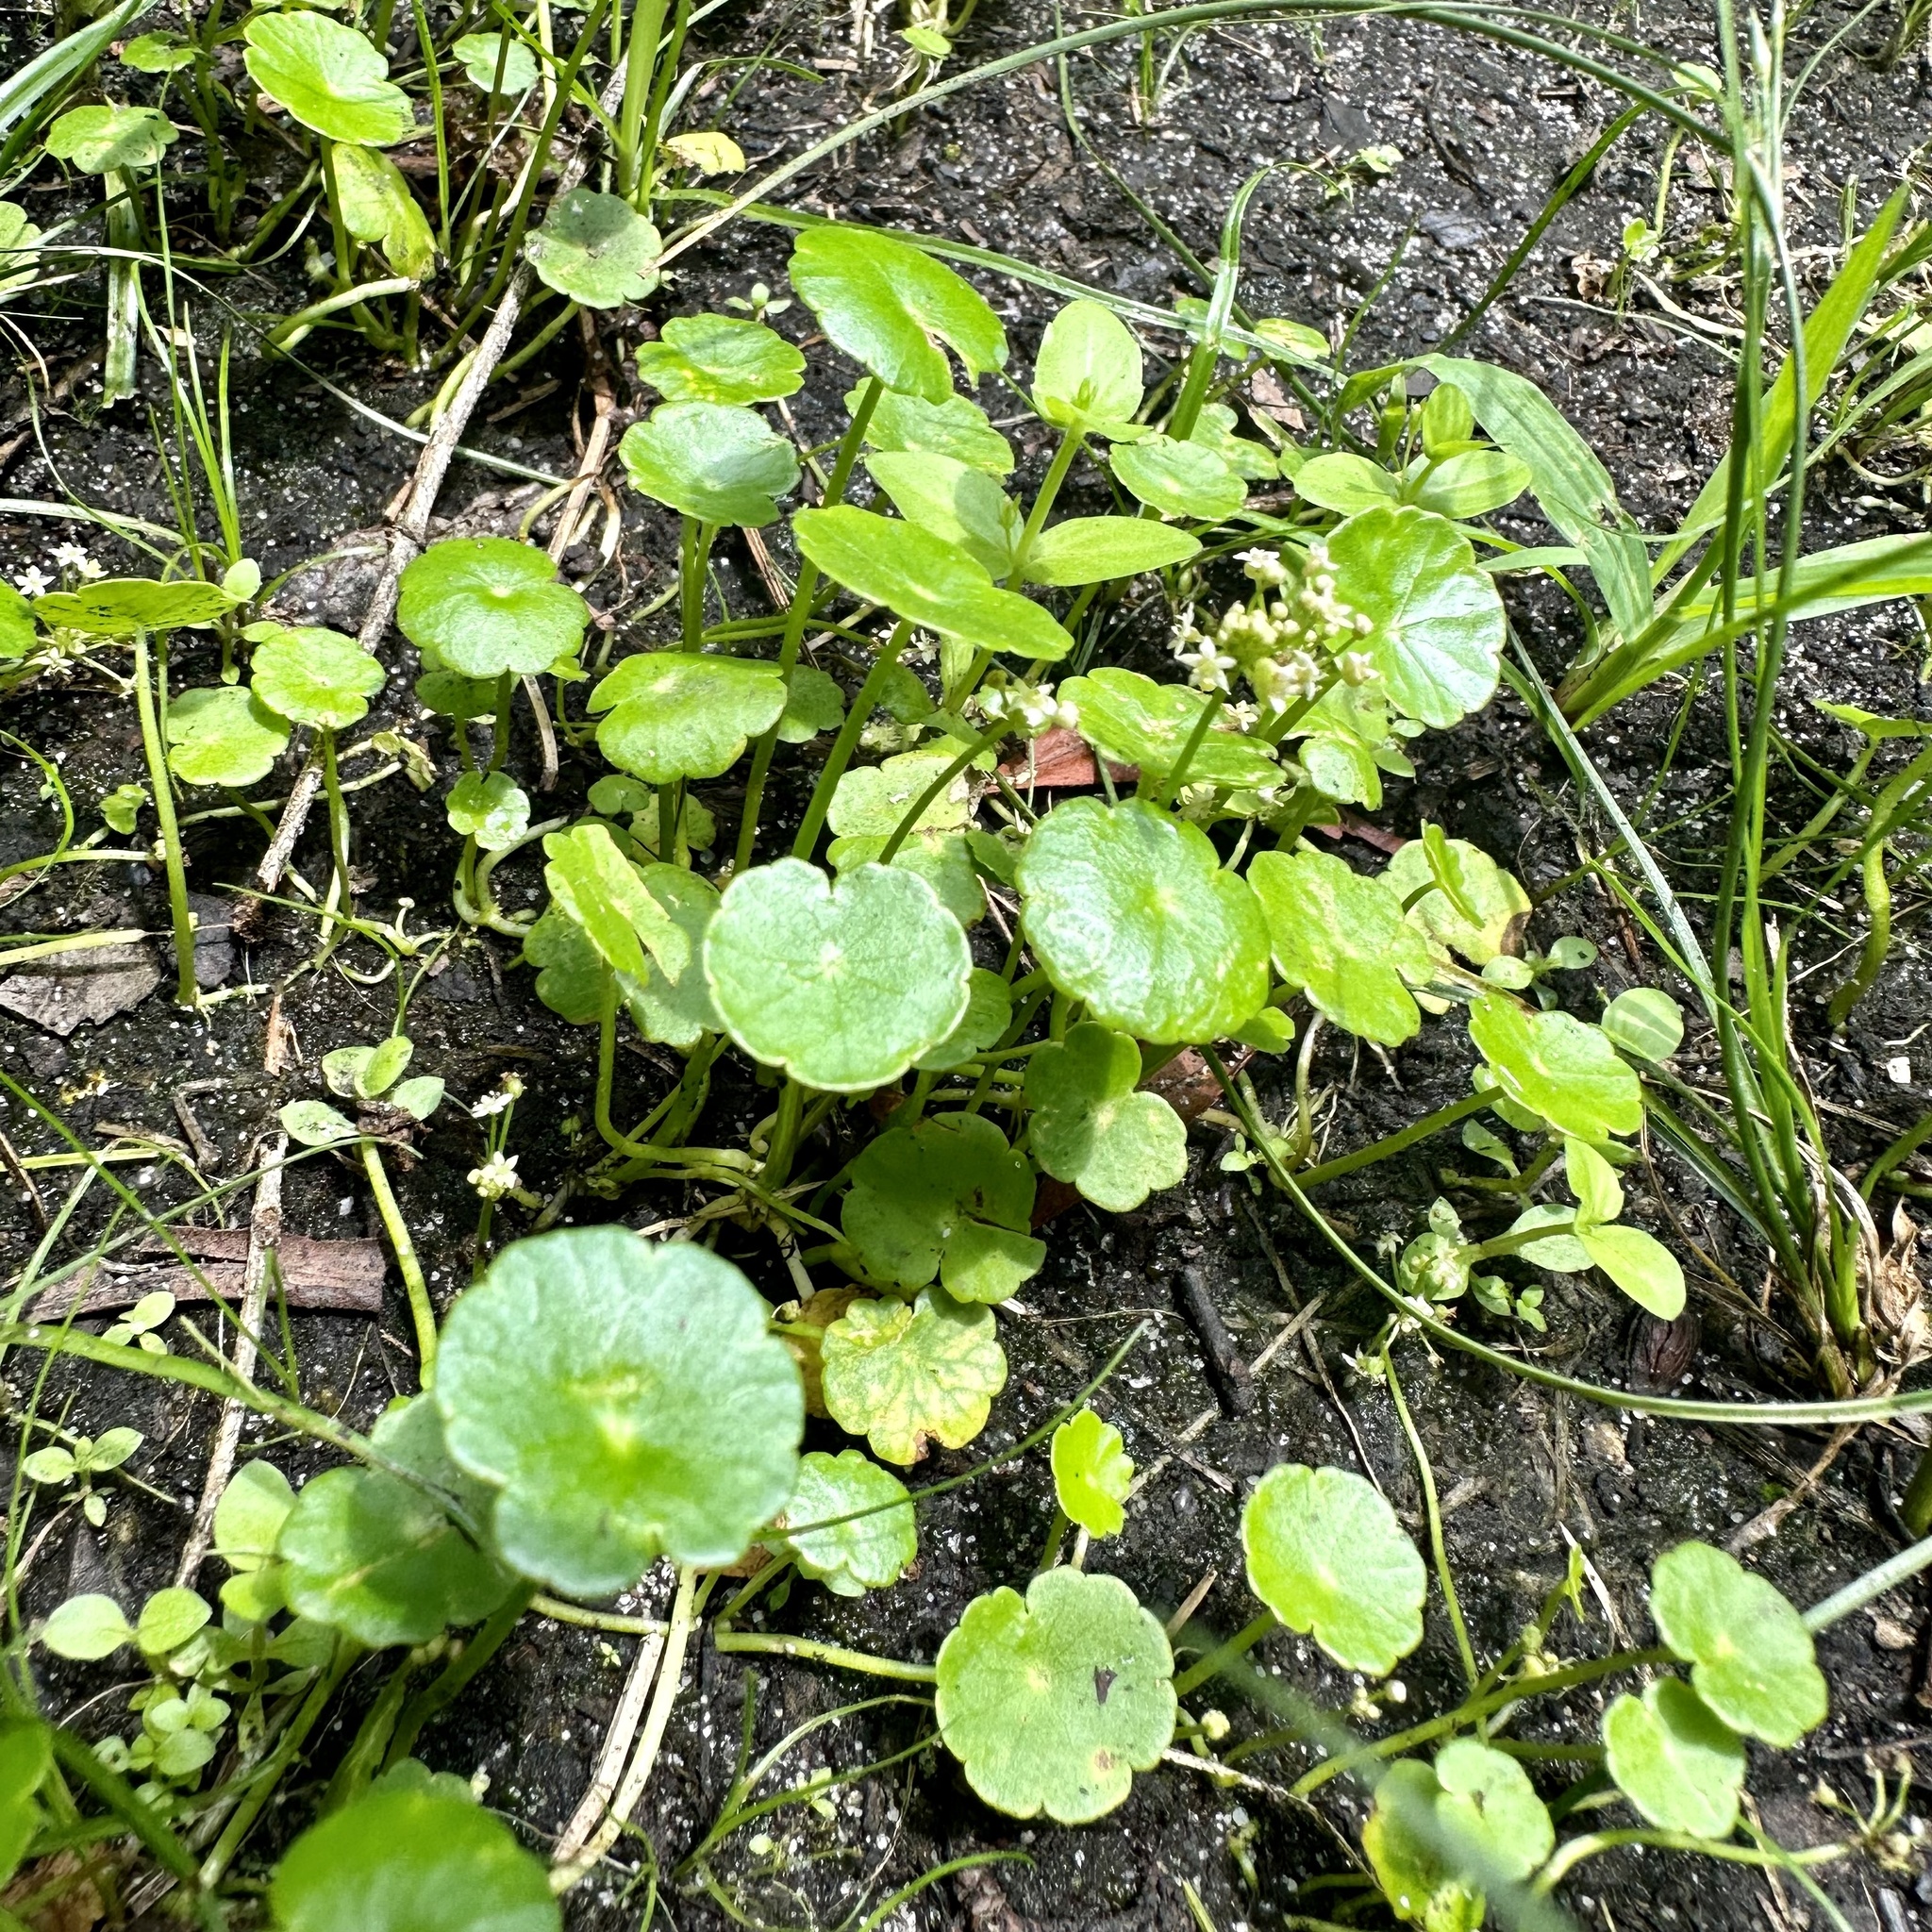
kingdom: Plantae
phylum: Tracheophyta
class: Magnoliopsida
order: Apiales
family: Araliaceae
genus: Hydrocotyle
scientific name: Hydrocotyle umbellata
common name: Water pennywort
